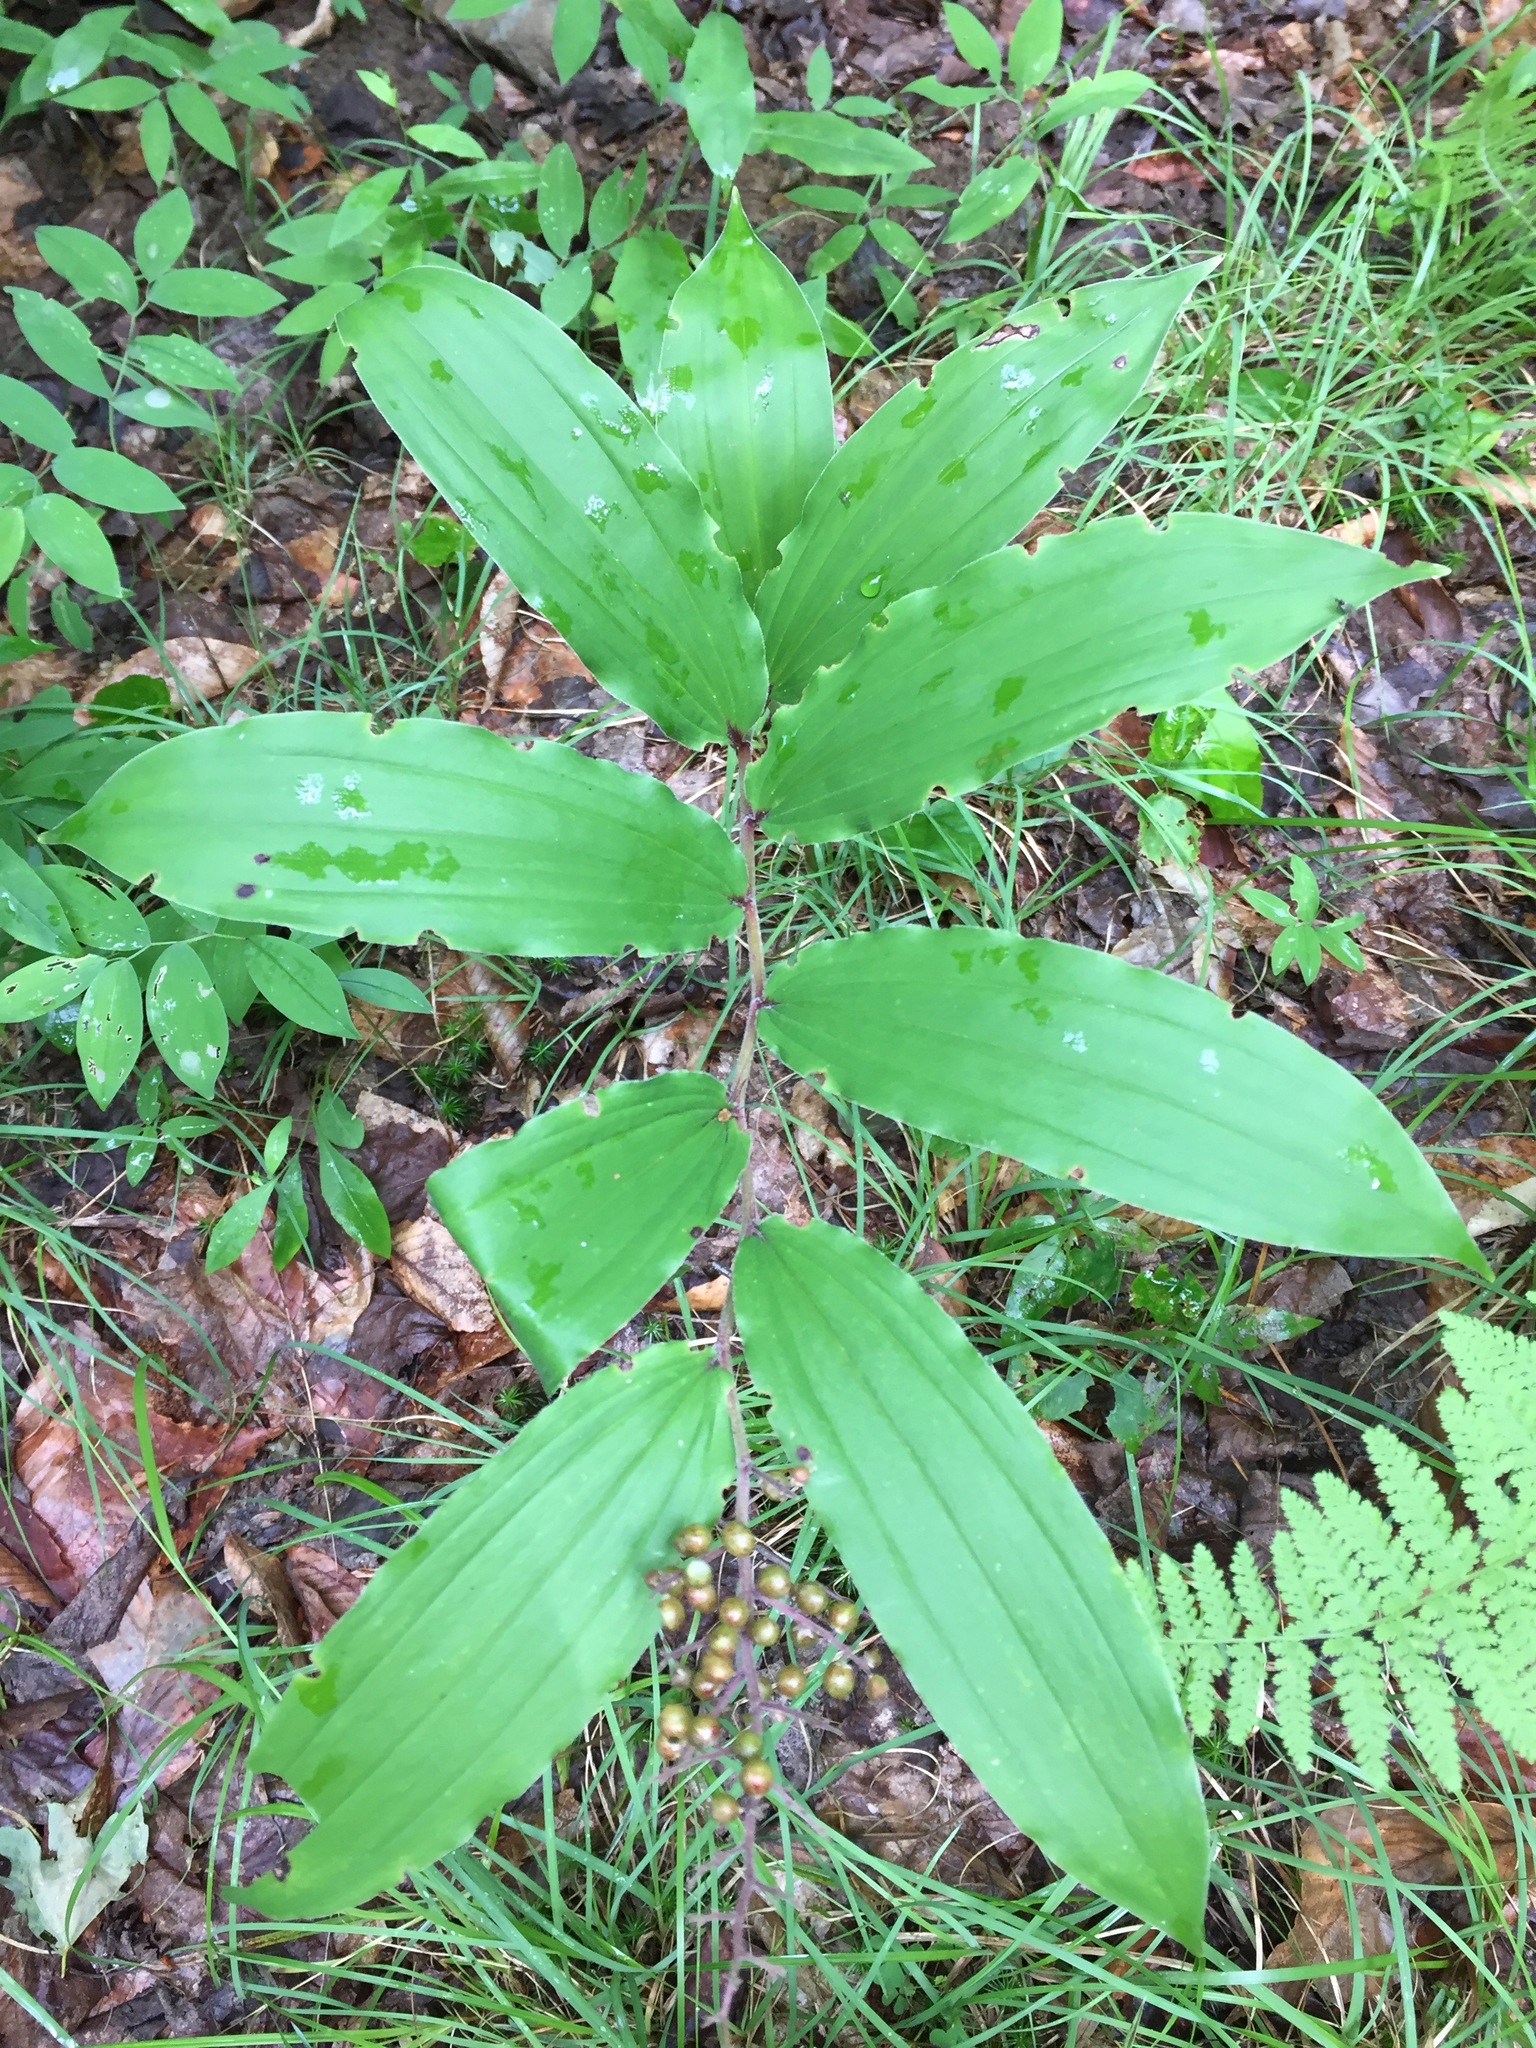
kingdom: Plantae
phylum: Tracheophyta
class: Liliopsida
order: Asparagales
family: Asparagaceae
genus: Maianthemum
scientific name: Maianthemum racemosum
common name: False spikenard
